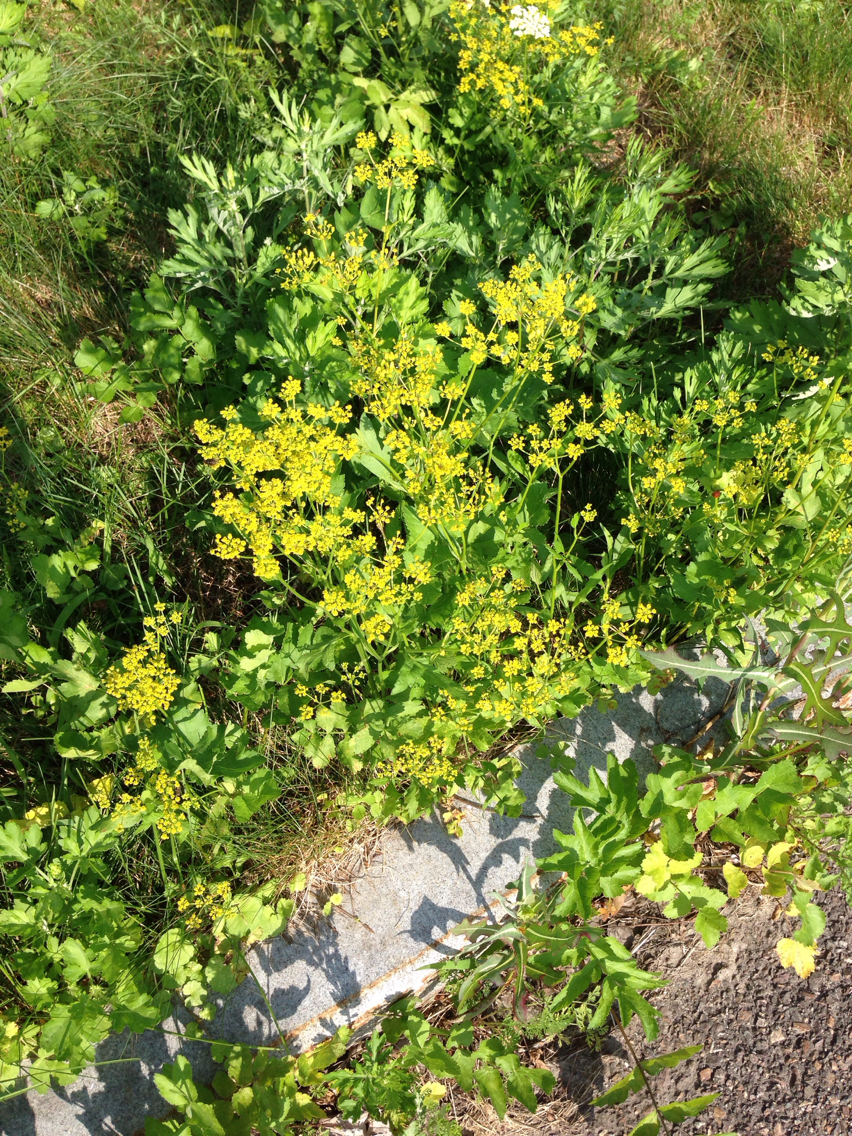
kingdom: Plantae
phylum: Tracheophyta
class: Magnoliopsida
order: Apiales
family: Apiaceae
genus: Pastinaca
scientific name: Pastinaca sativa
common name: Wild parsnip
